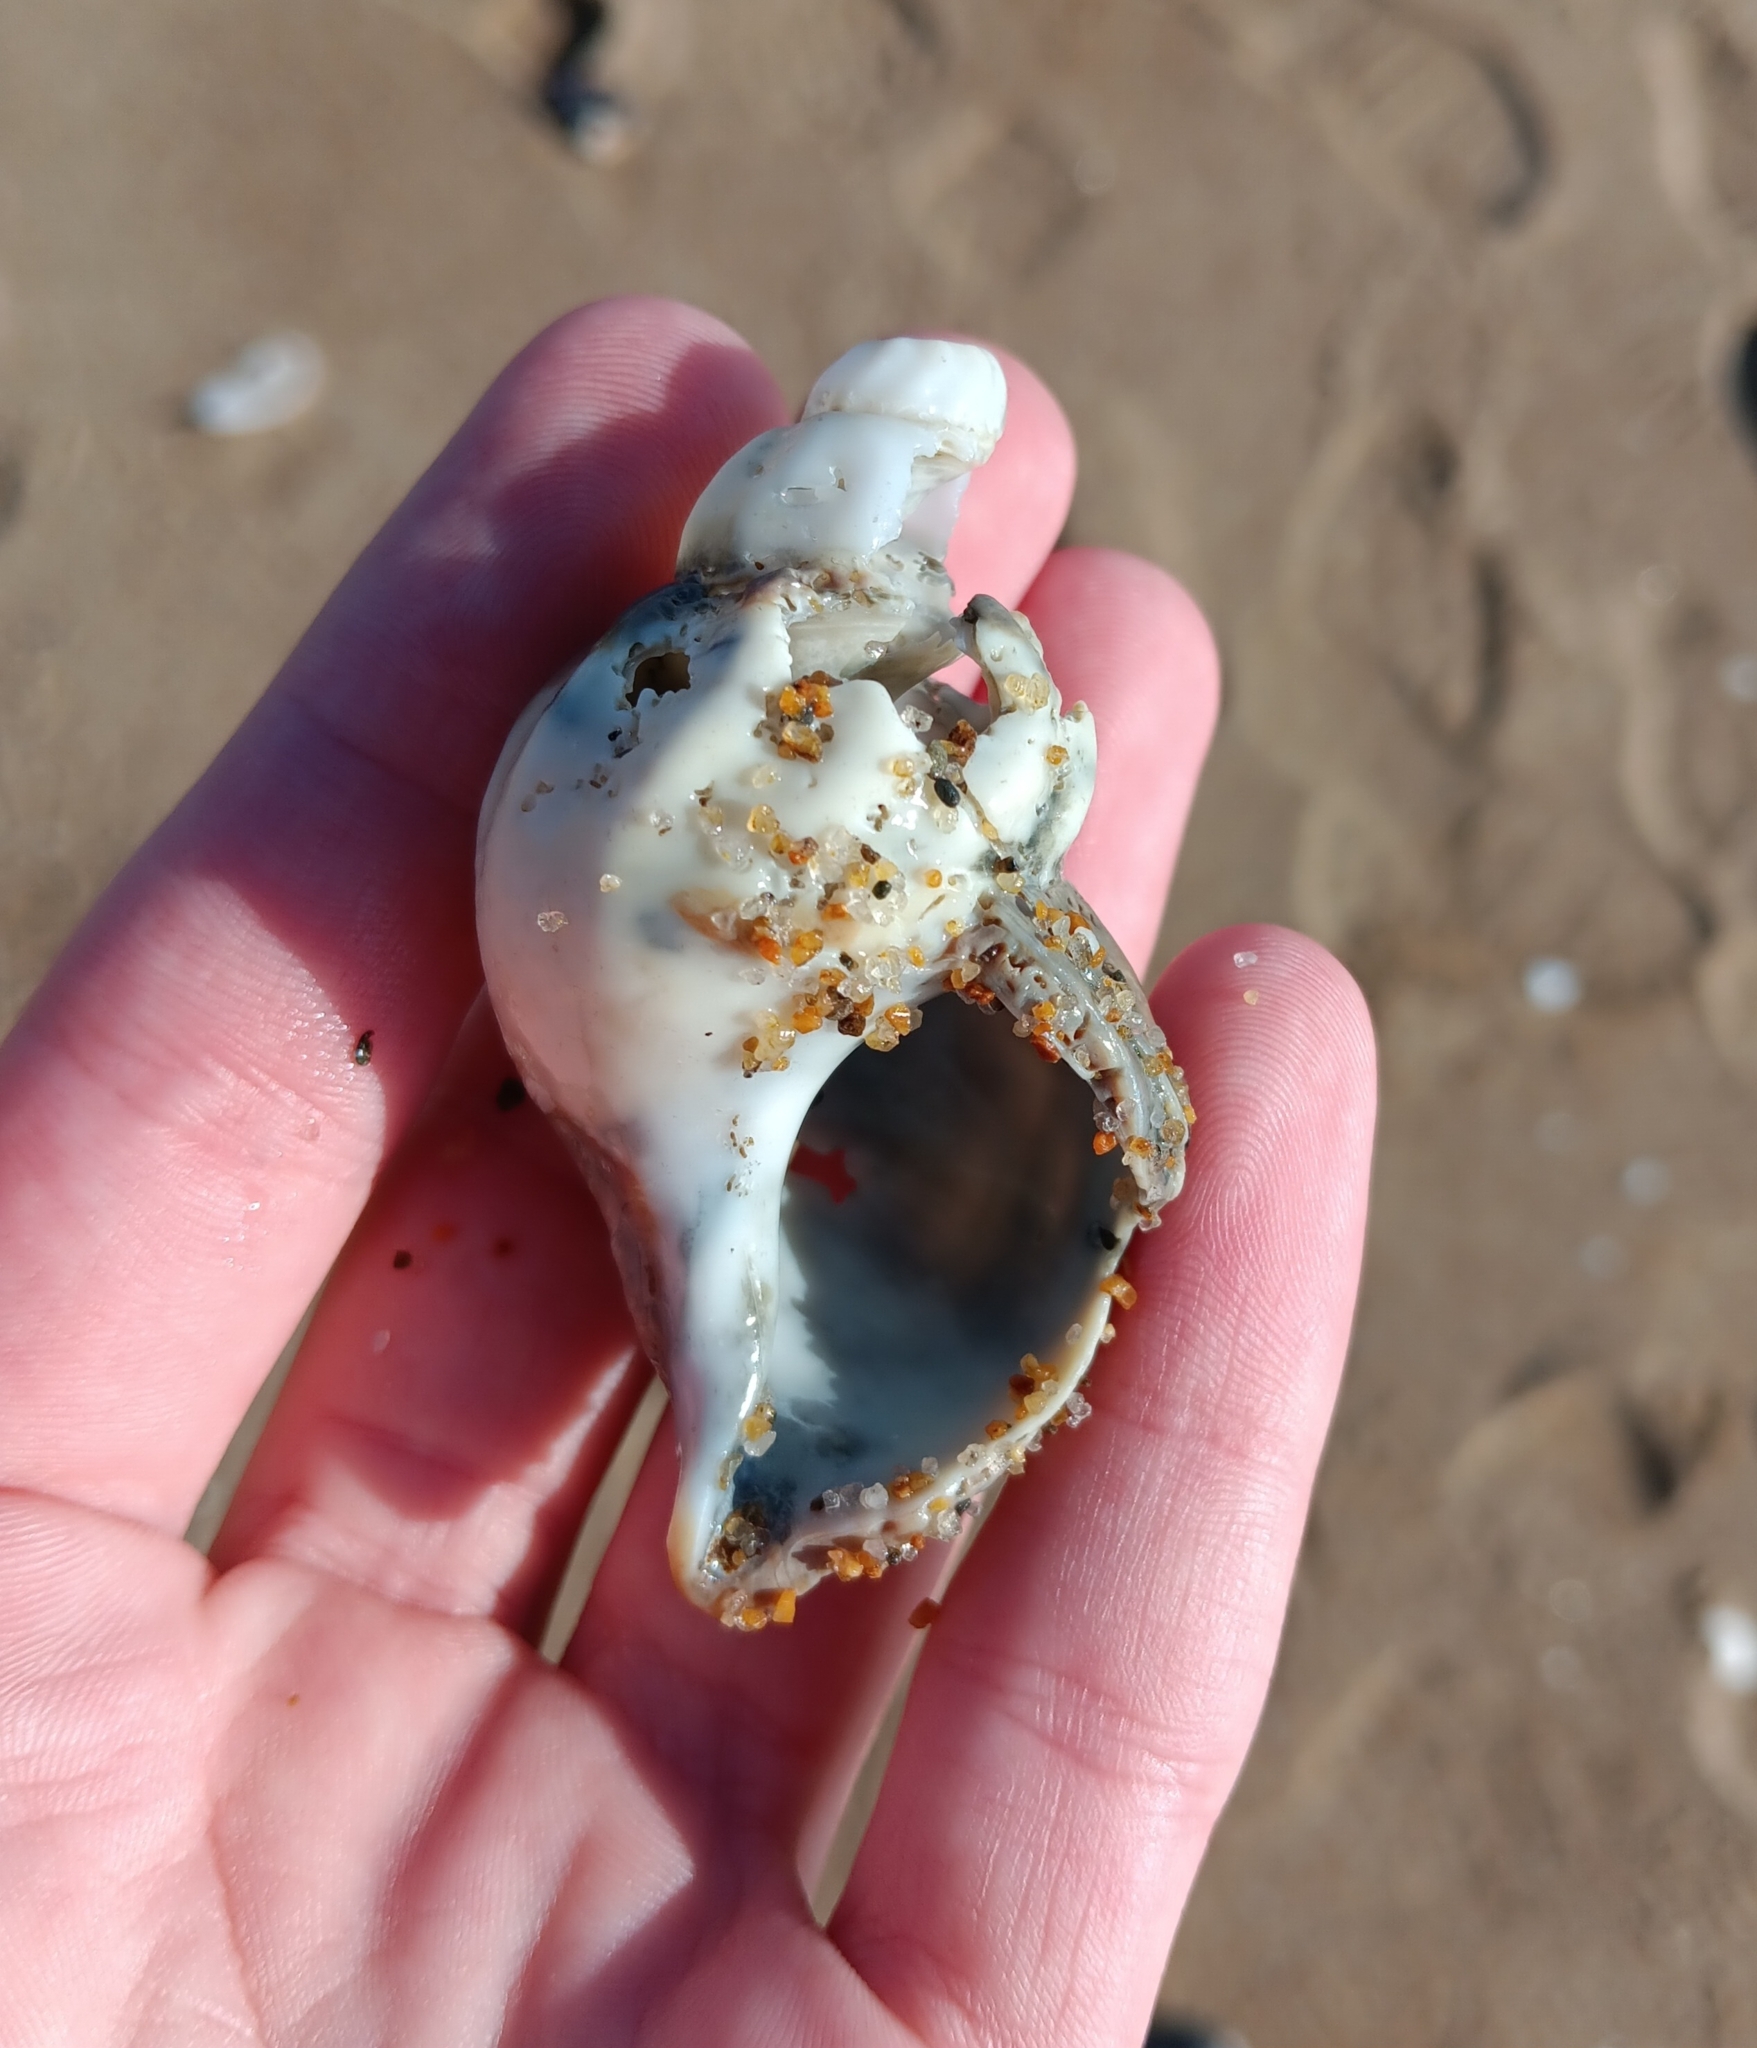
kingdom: Animalia
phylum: Mollusca
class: Gastropoda
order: Neogastropoda
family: Buccinidae
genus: Buccinum
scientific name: Buccinum undatum
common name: Common whelk
